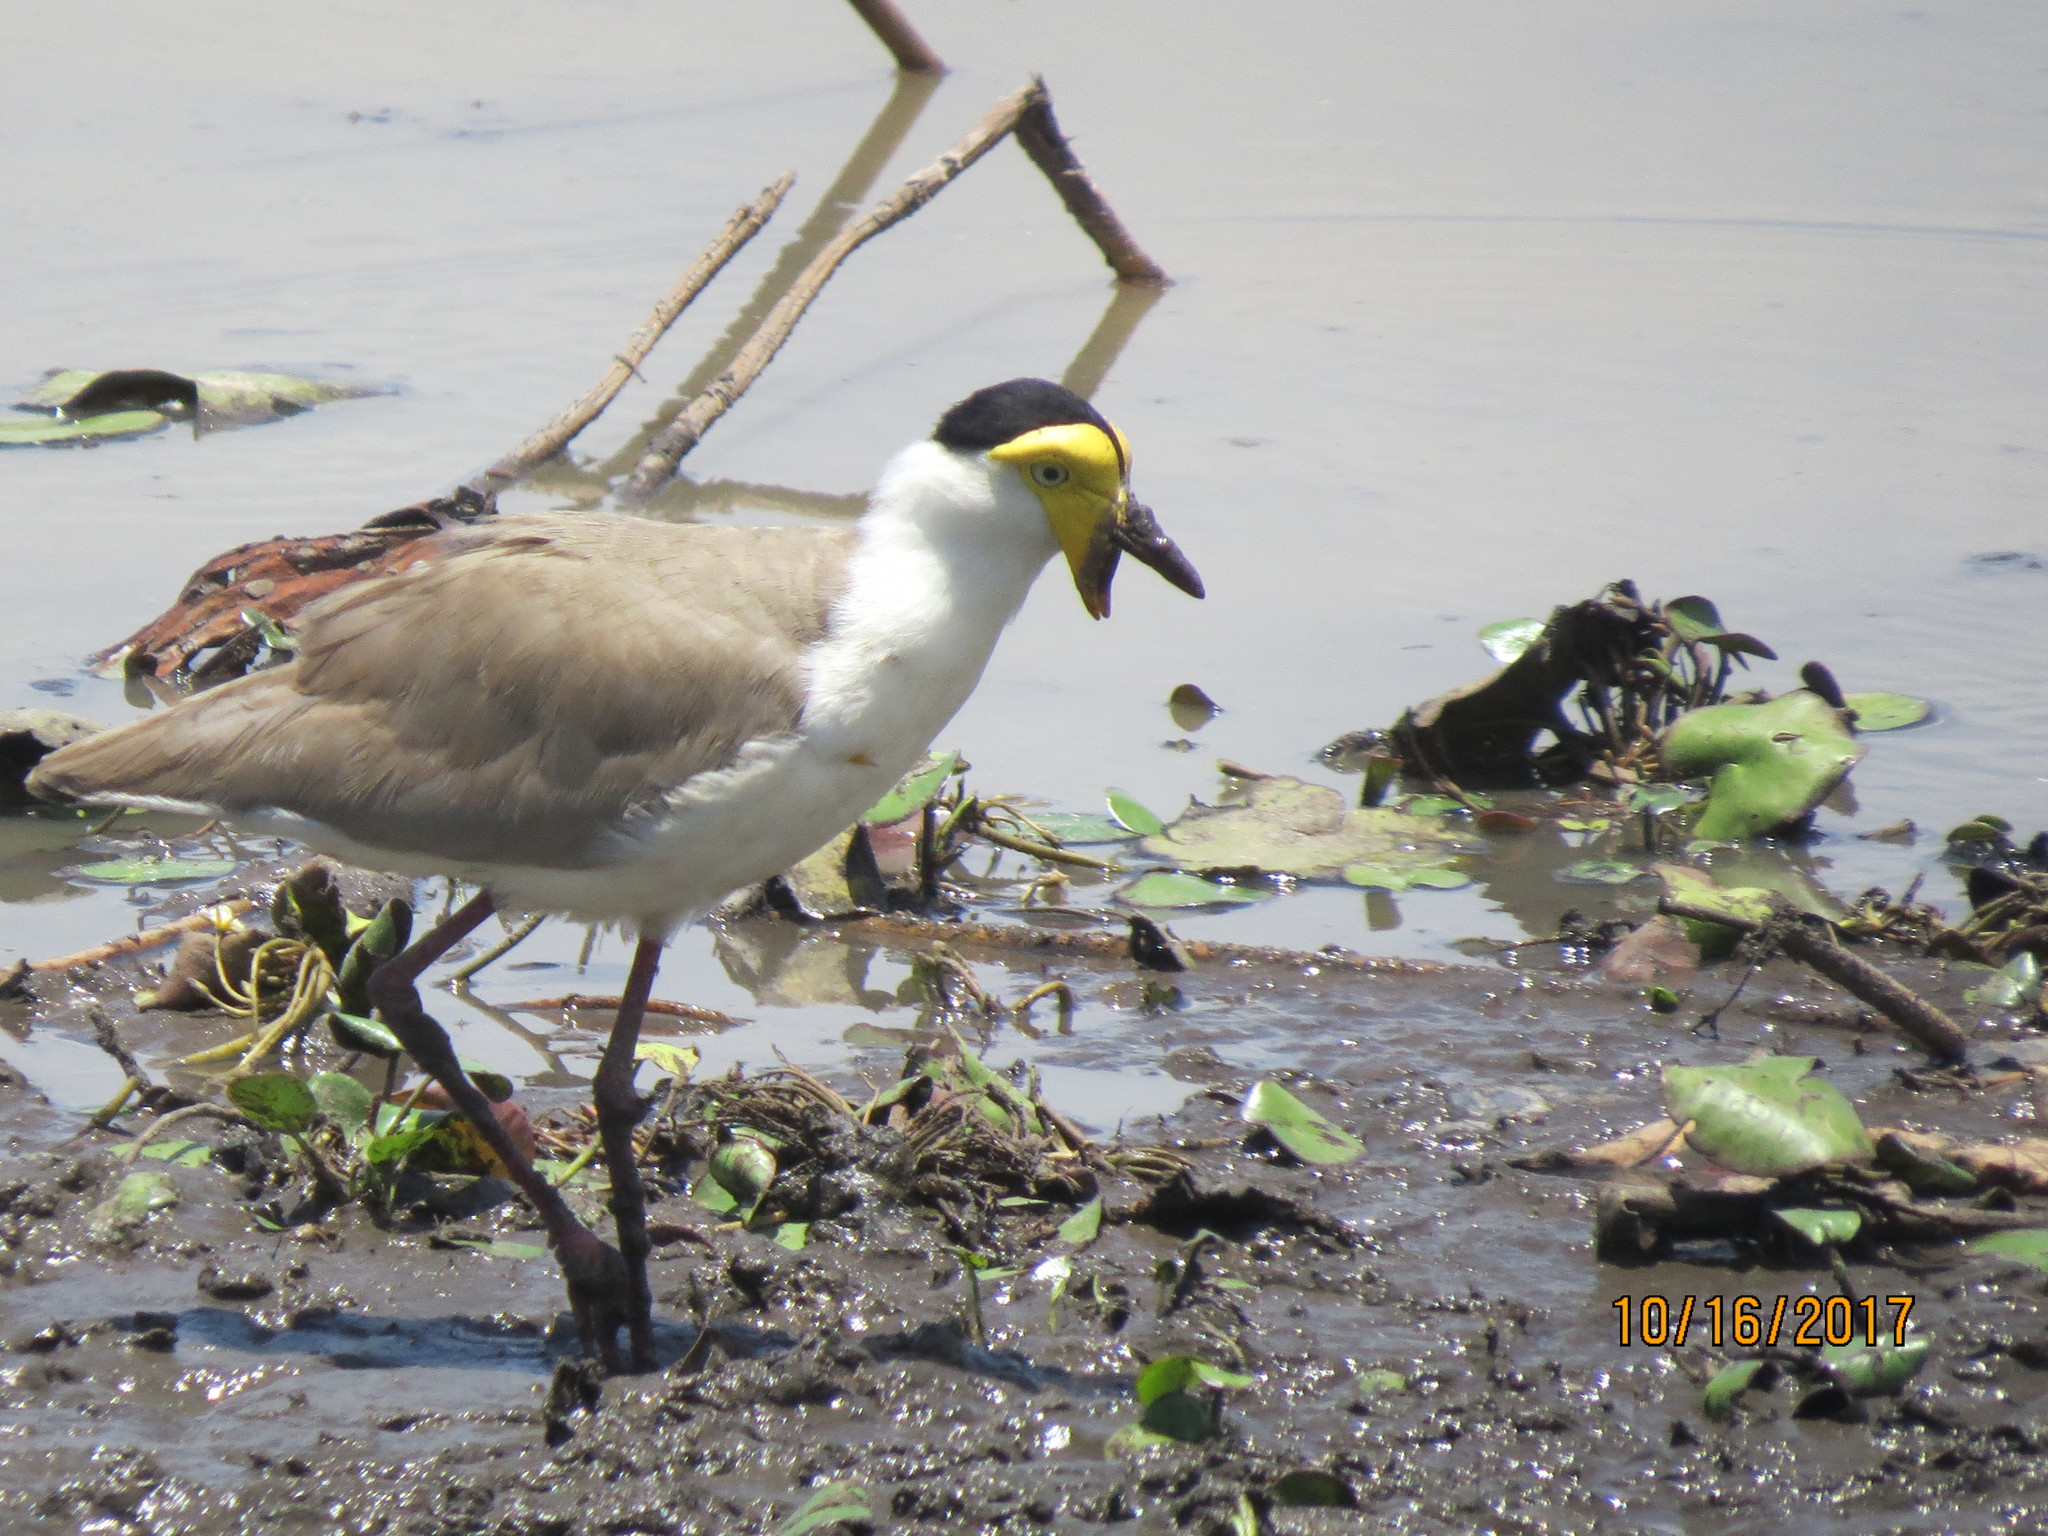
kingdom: Animalia
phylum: Chordata
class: Aves
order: Charadriiformes
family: Charadriidae
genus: Vanellus
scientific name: Vanellus miles
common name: Masked lapwing
